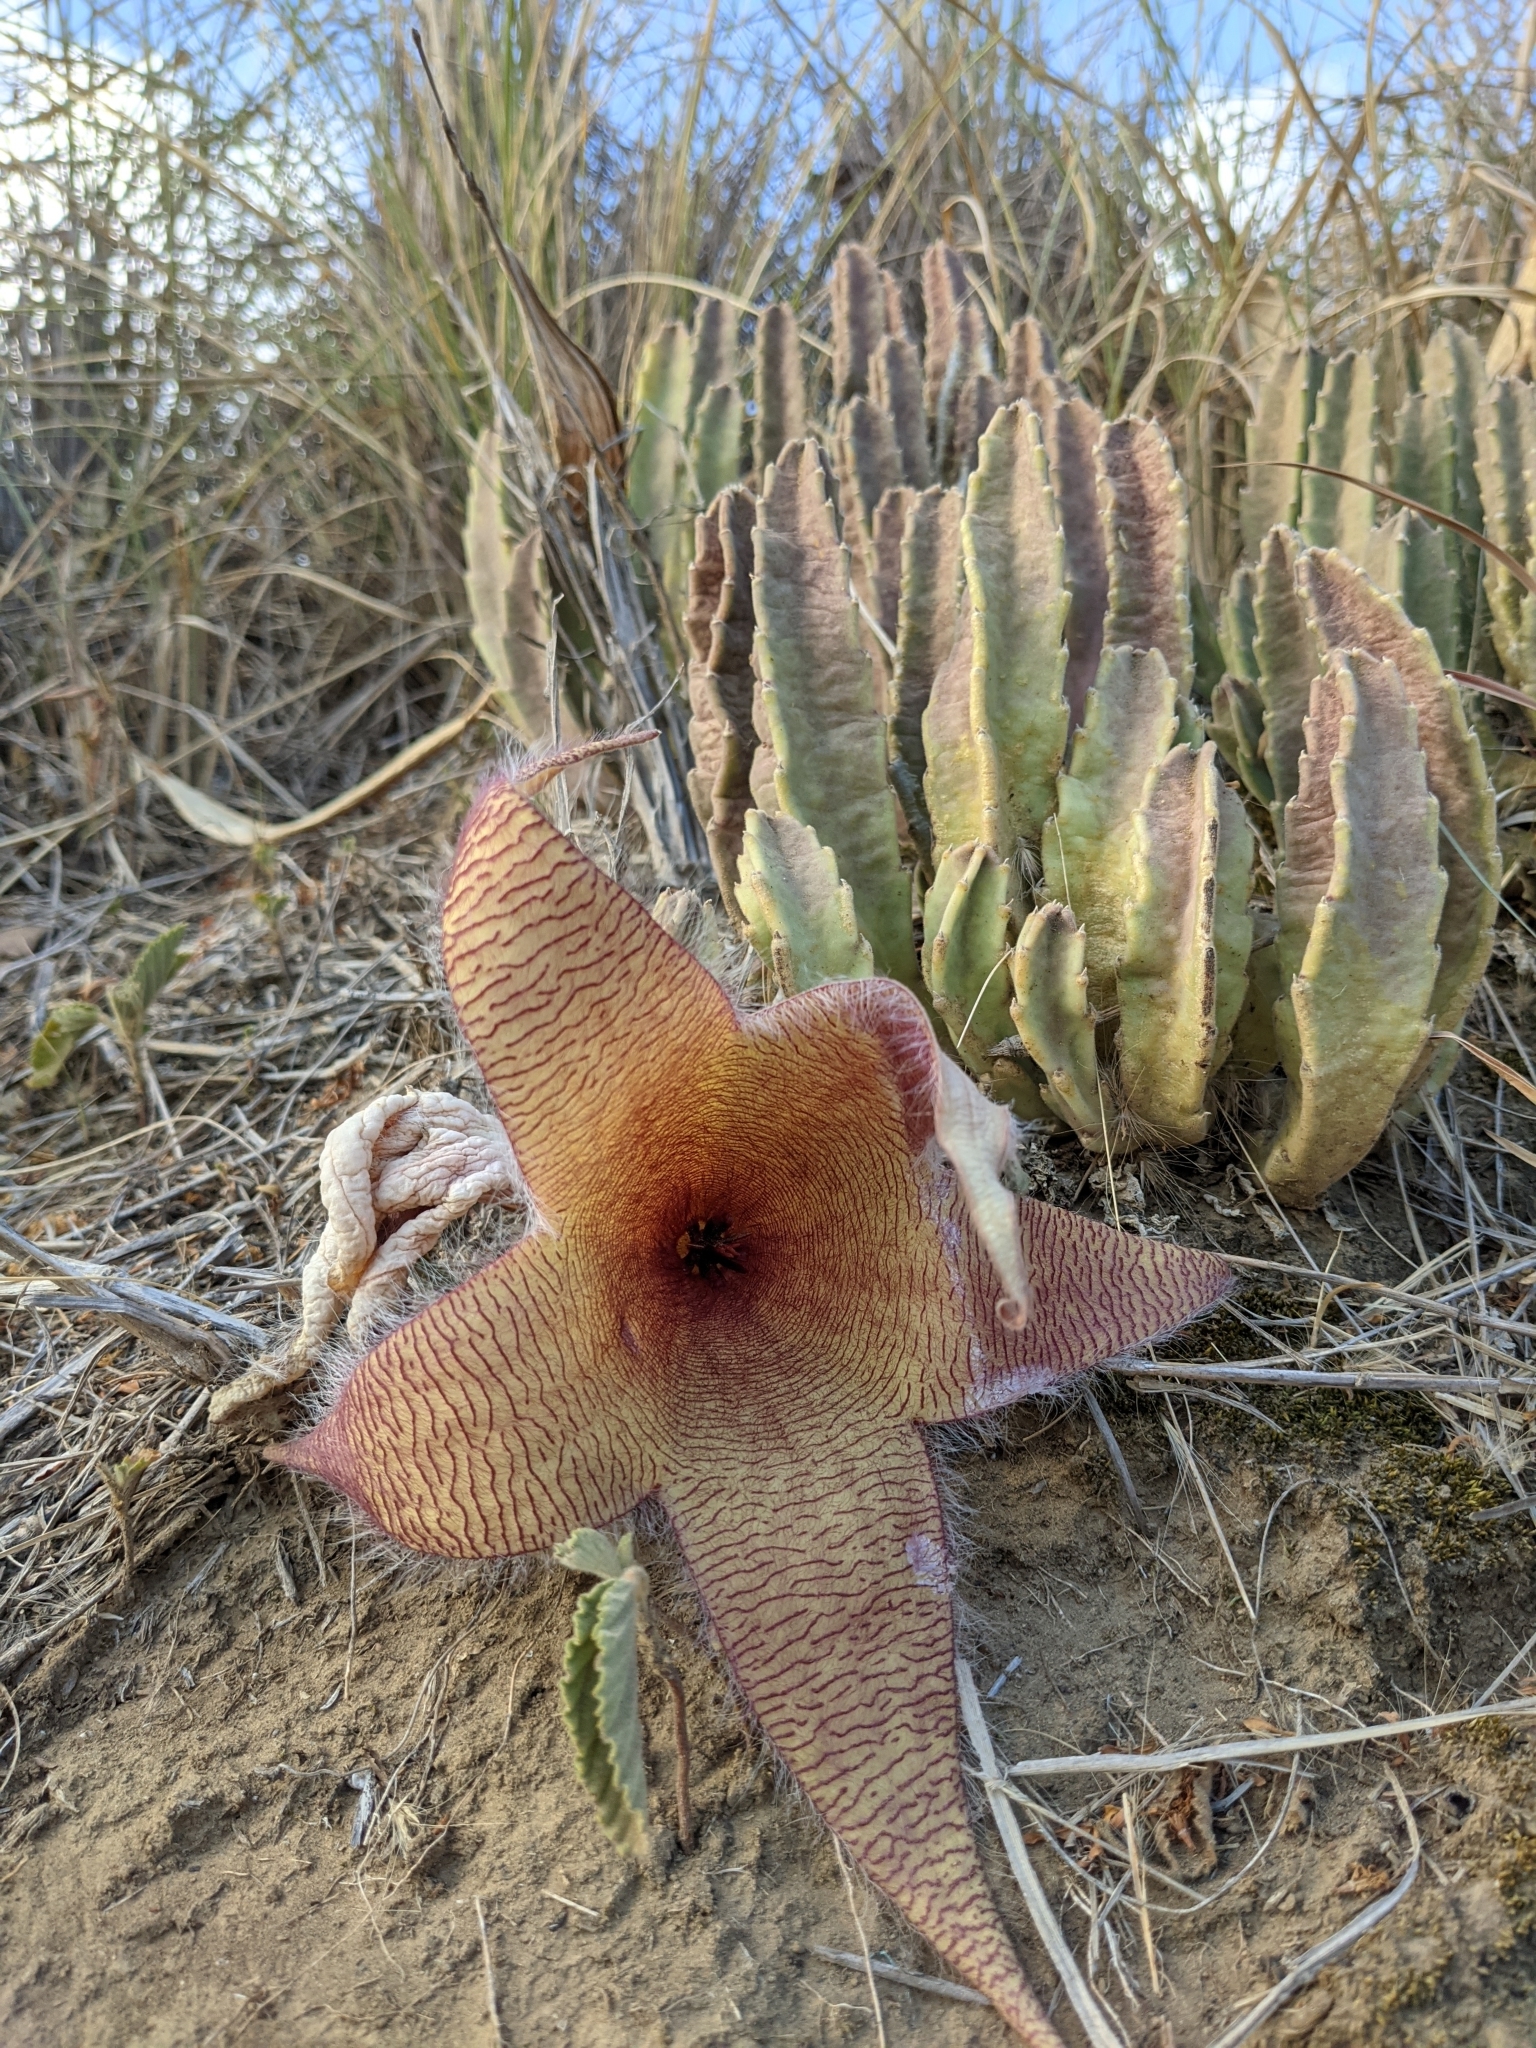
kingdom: Plantae
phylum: Tracheophyta
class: Magnoliopsida
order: Gentianales
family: Apocynaceae
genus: Ceropegia
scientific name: Ceropegia gigantea
